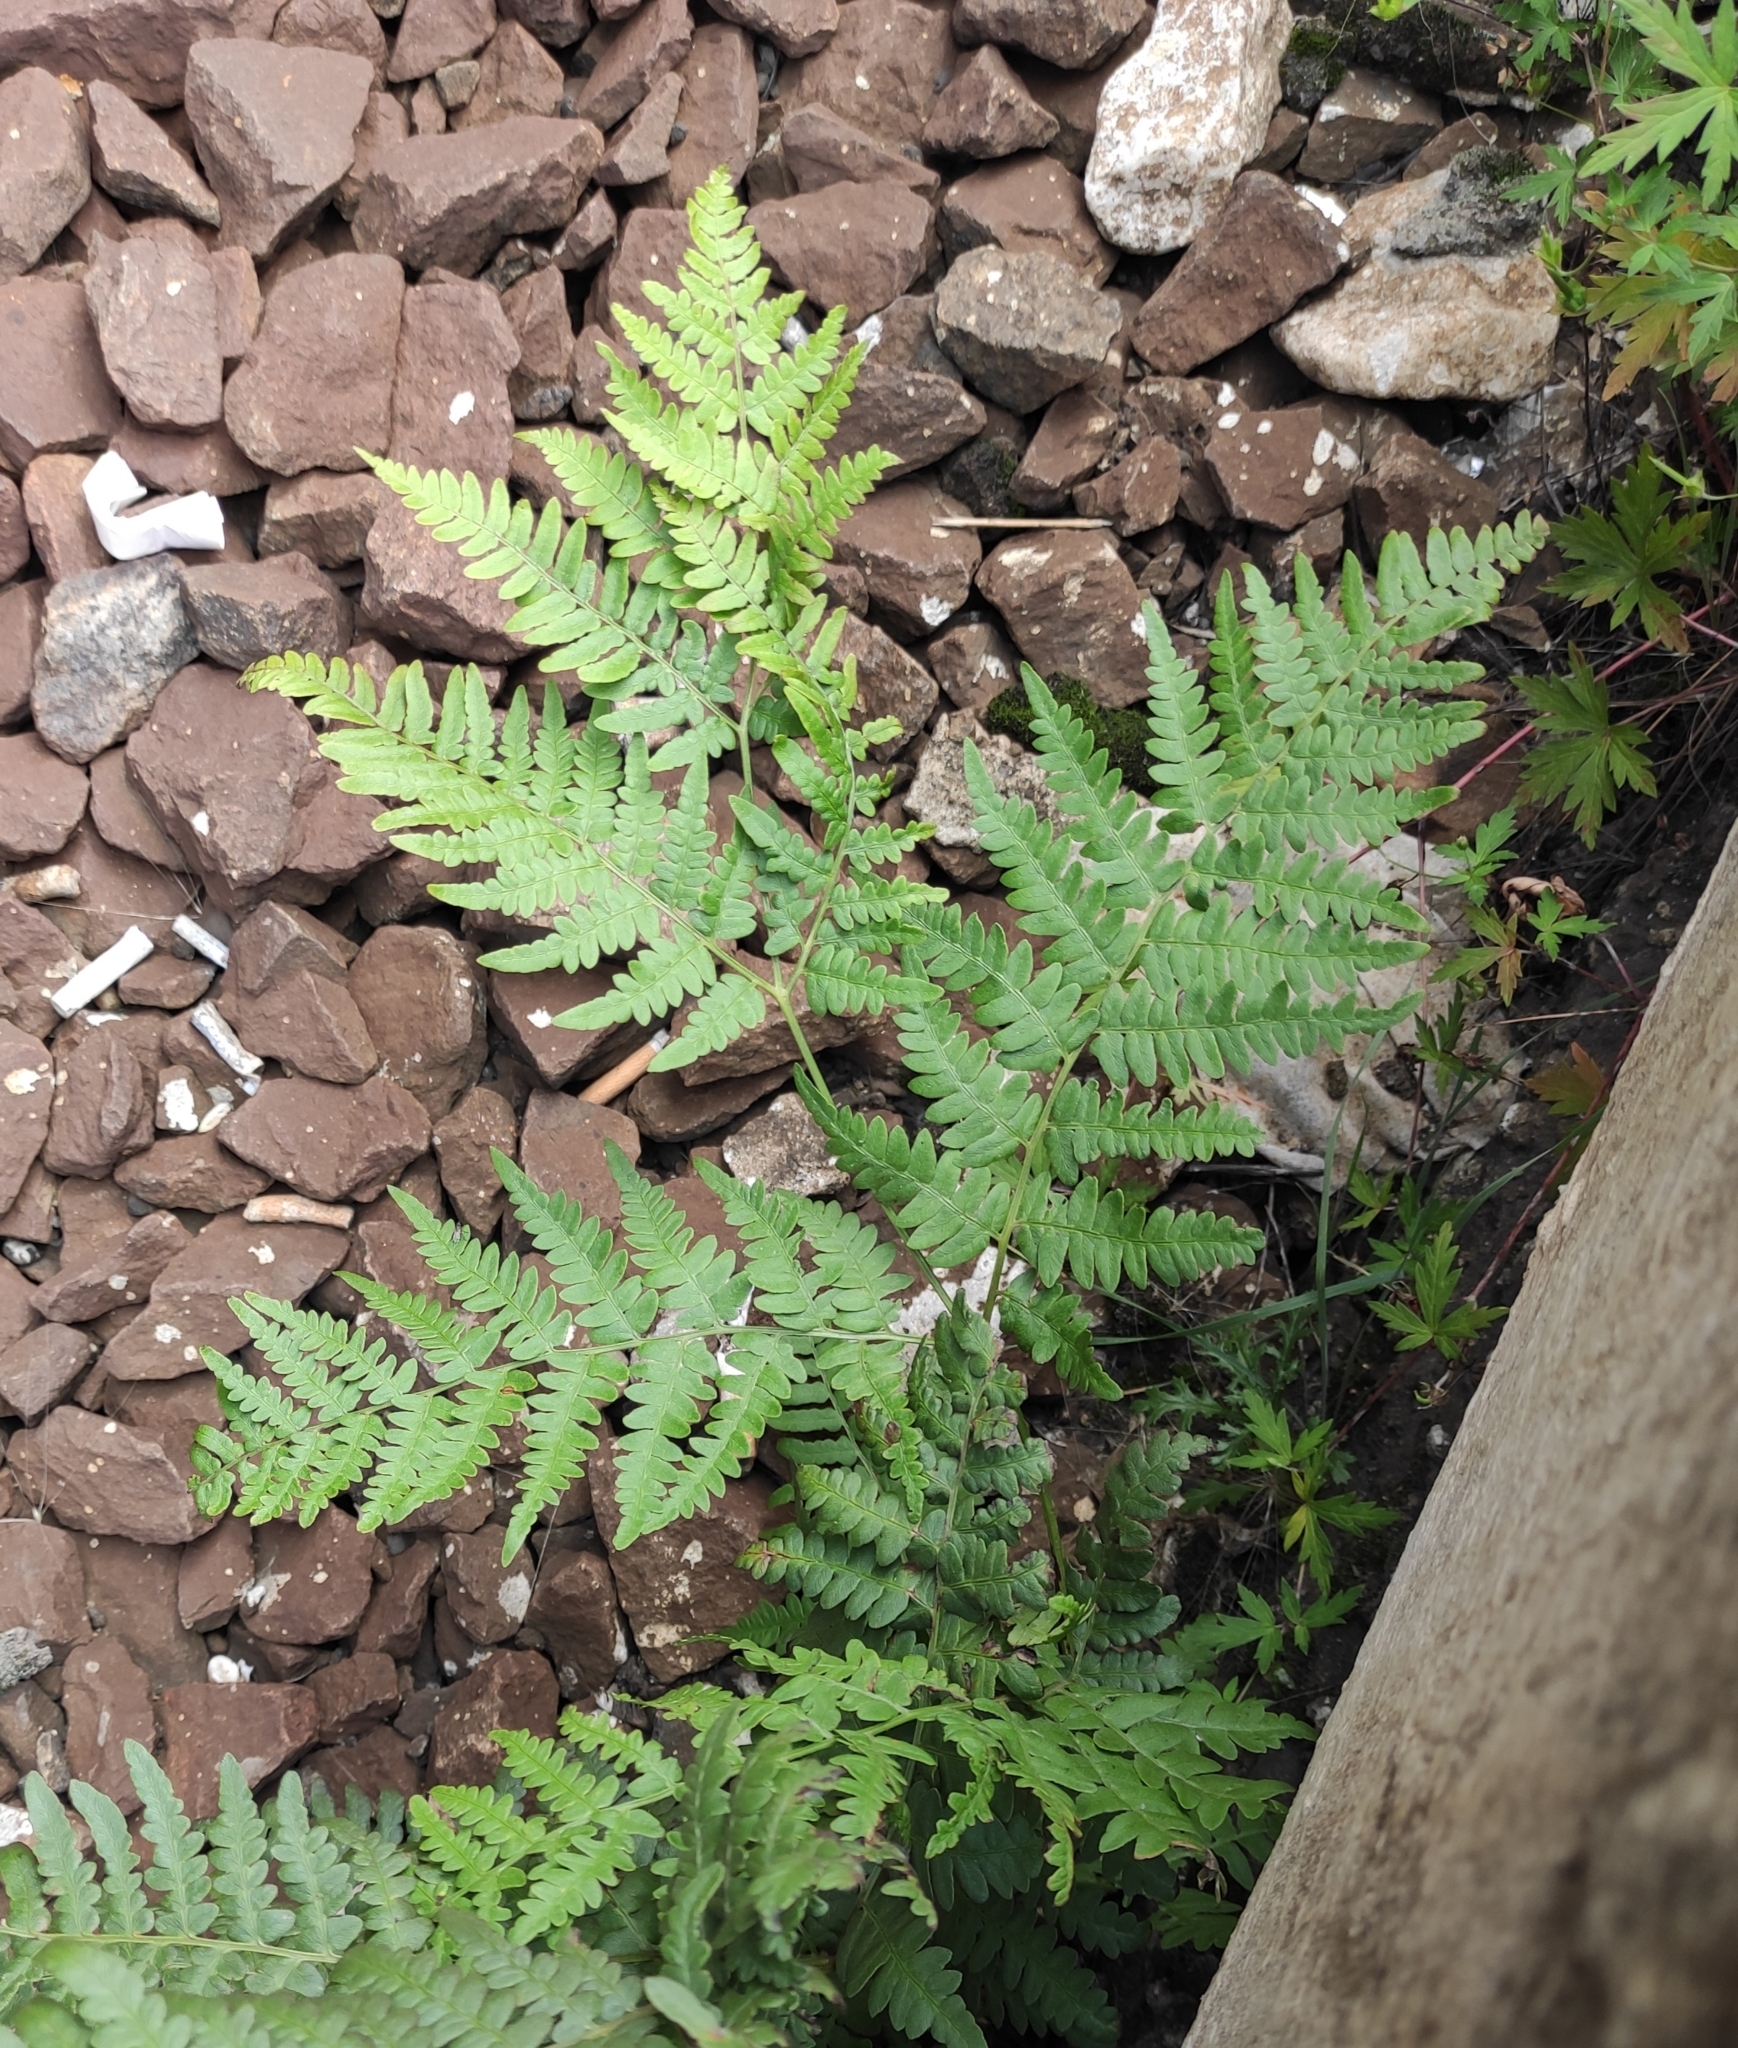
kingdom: Plantae
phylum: Tracheophyta
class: Polypodiopsida
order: Polypodiales
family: Dennstaedtiaceae
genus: Pteridium
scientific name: Pteridium aquilinum
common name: Bracken
